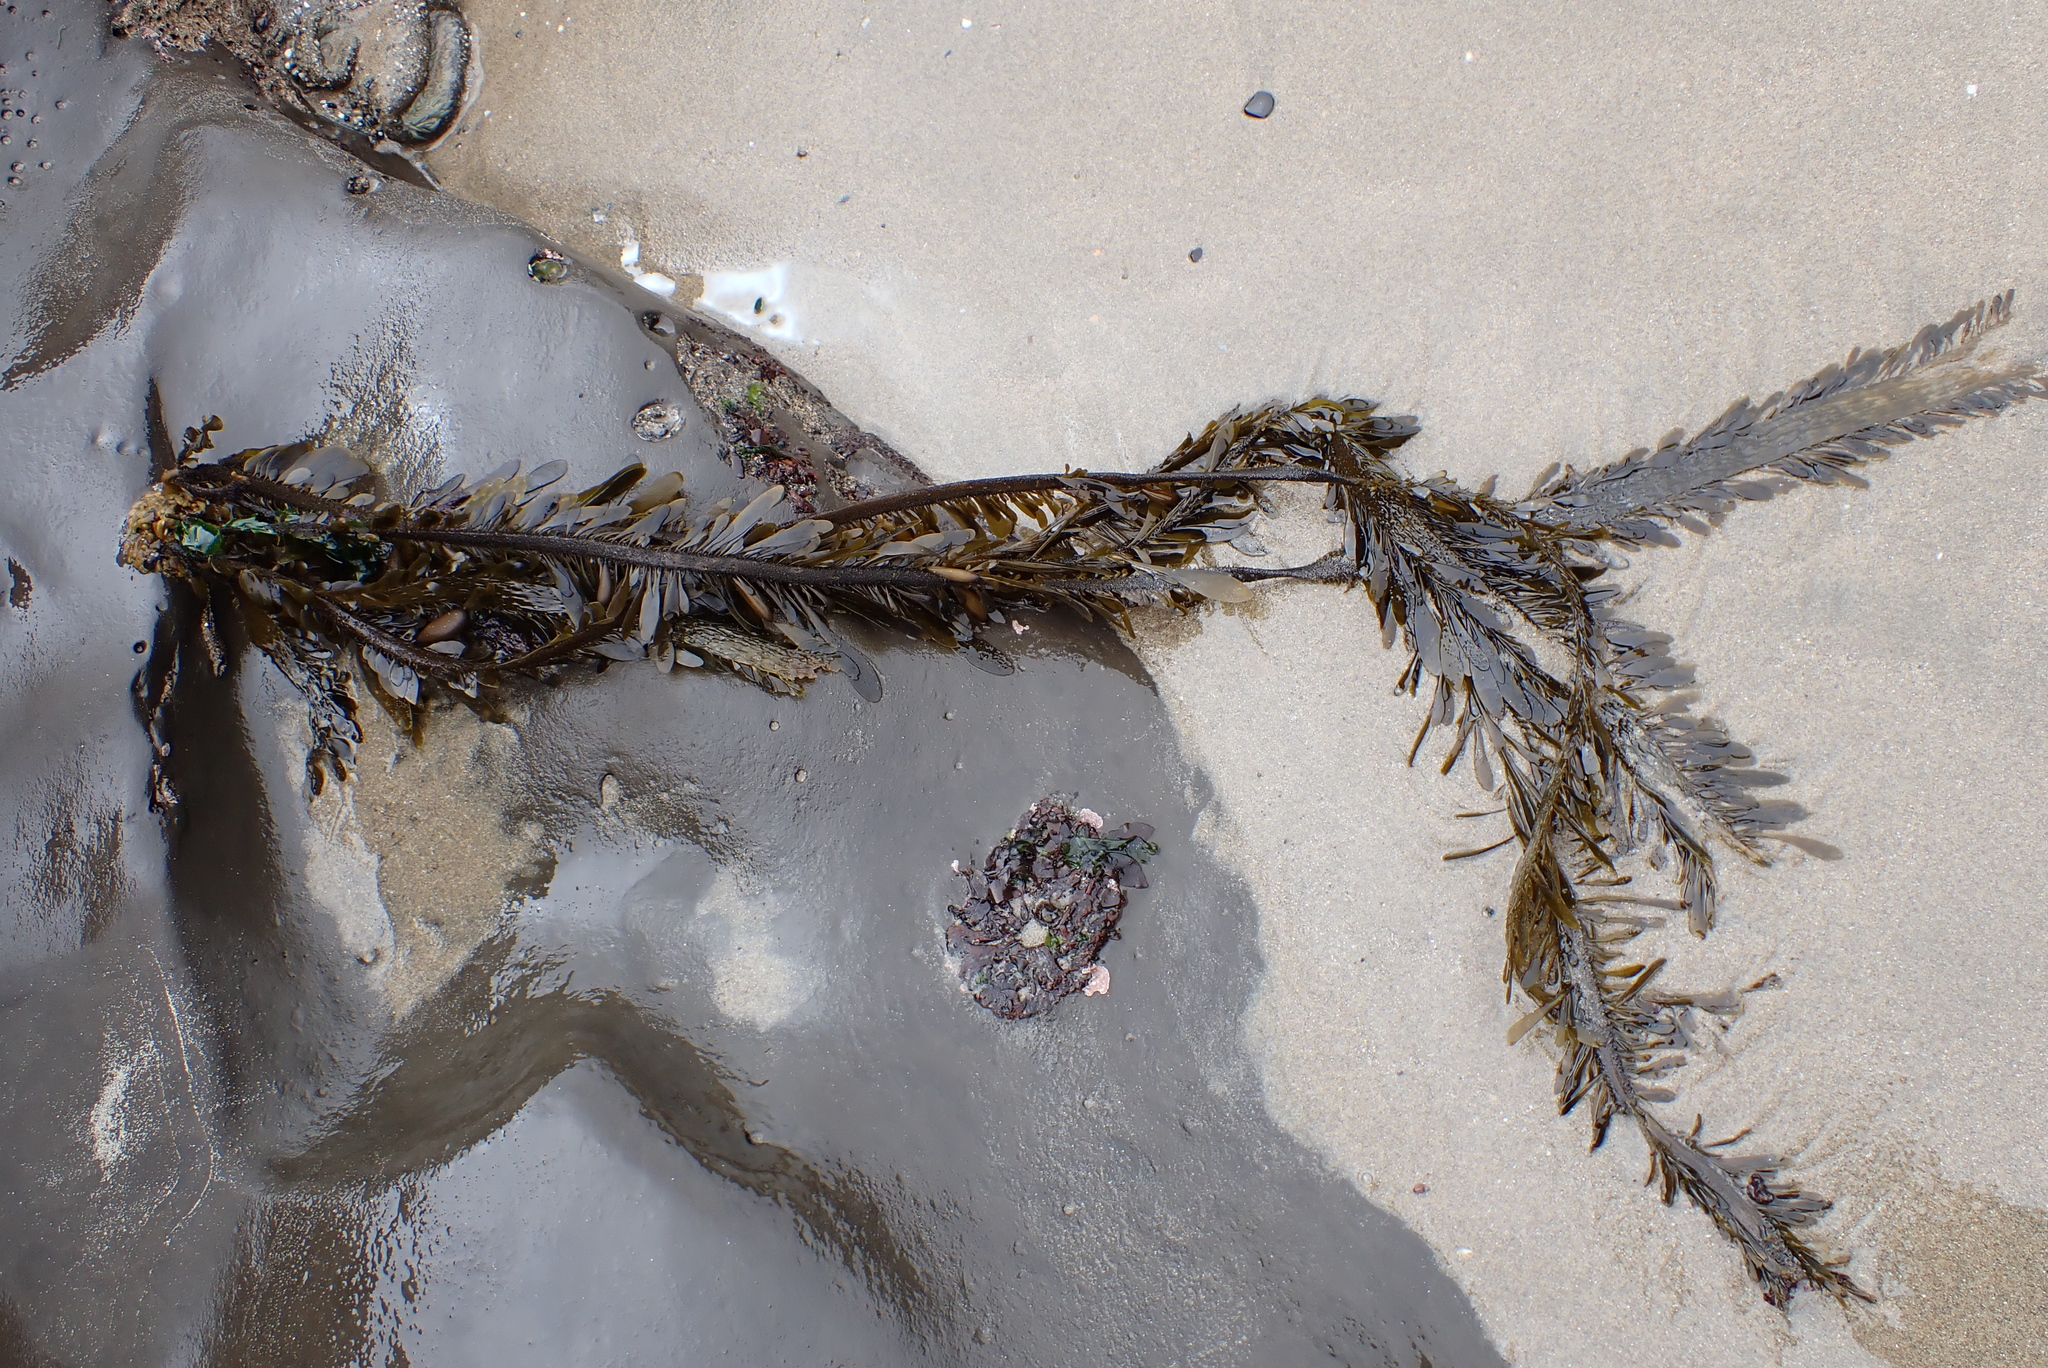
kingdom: Chromista
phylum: Ochrophyta
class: Phaeophyceae
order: Laminariales
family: Lessoniaceae
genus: Egregia
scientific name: Egregia menziesii
